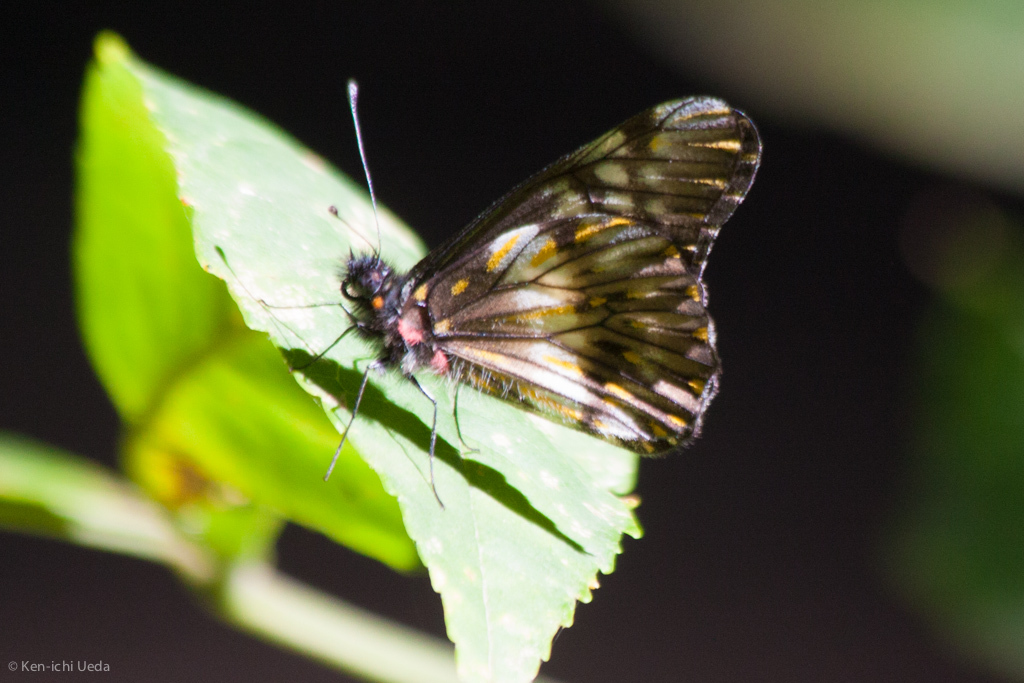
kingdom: Animalia
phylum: Arthropoda
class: Insecta
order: Lepidoptera
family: Pieridae
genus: Archonias
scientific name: Archonias nimbice
